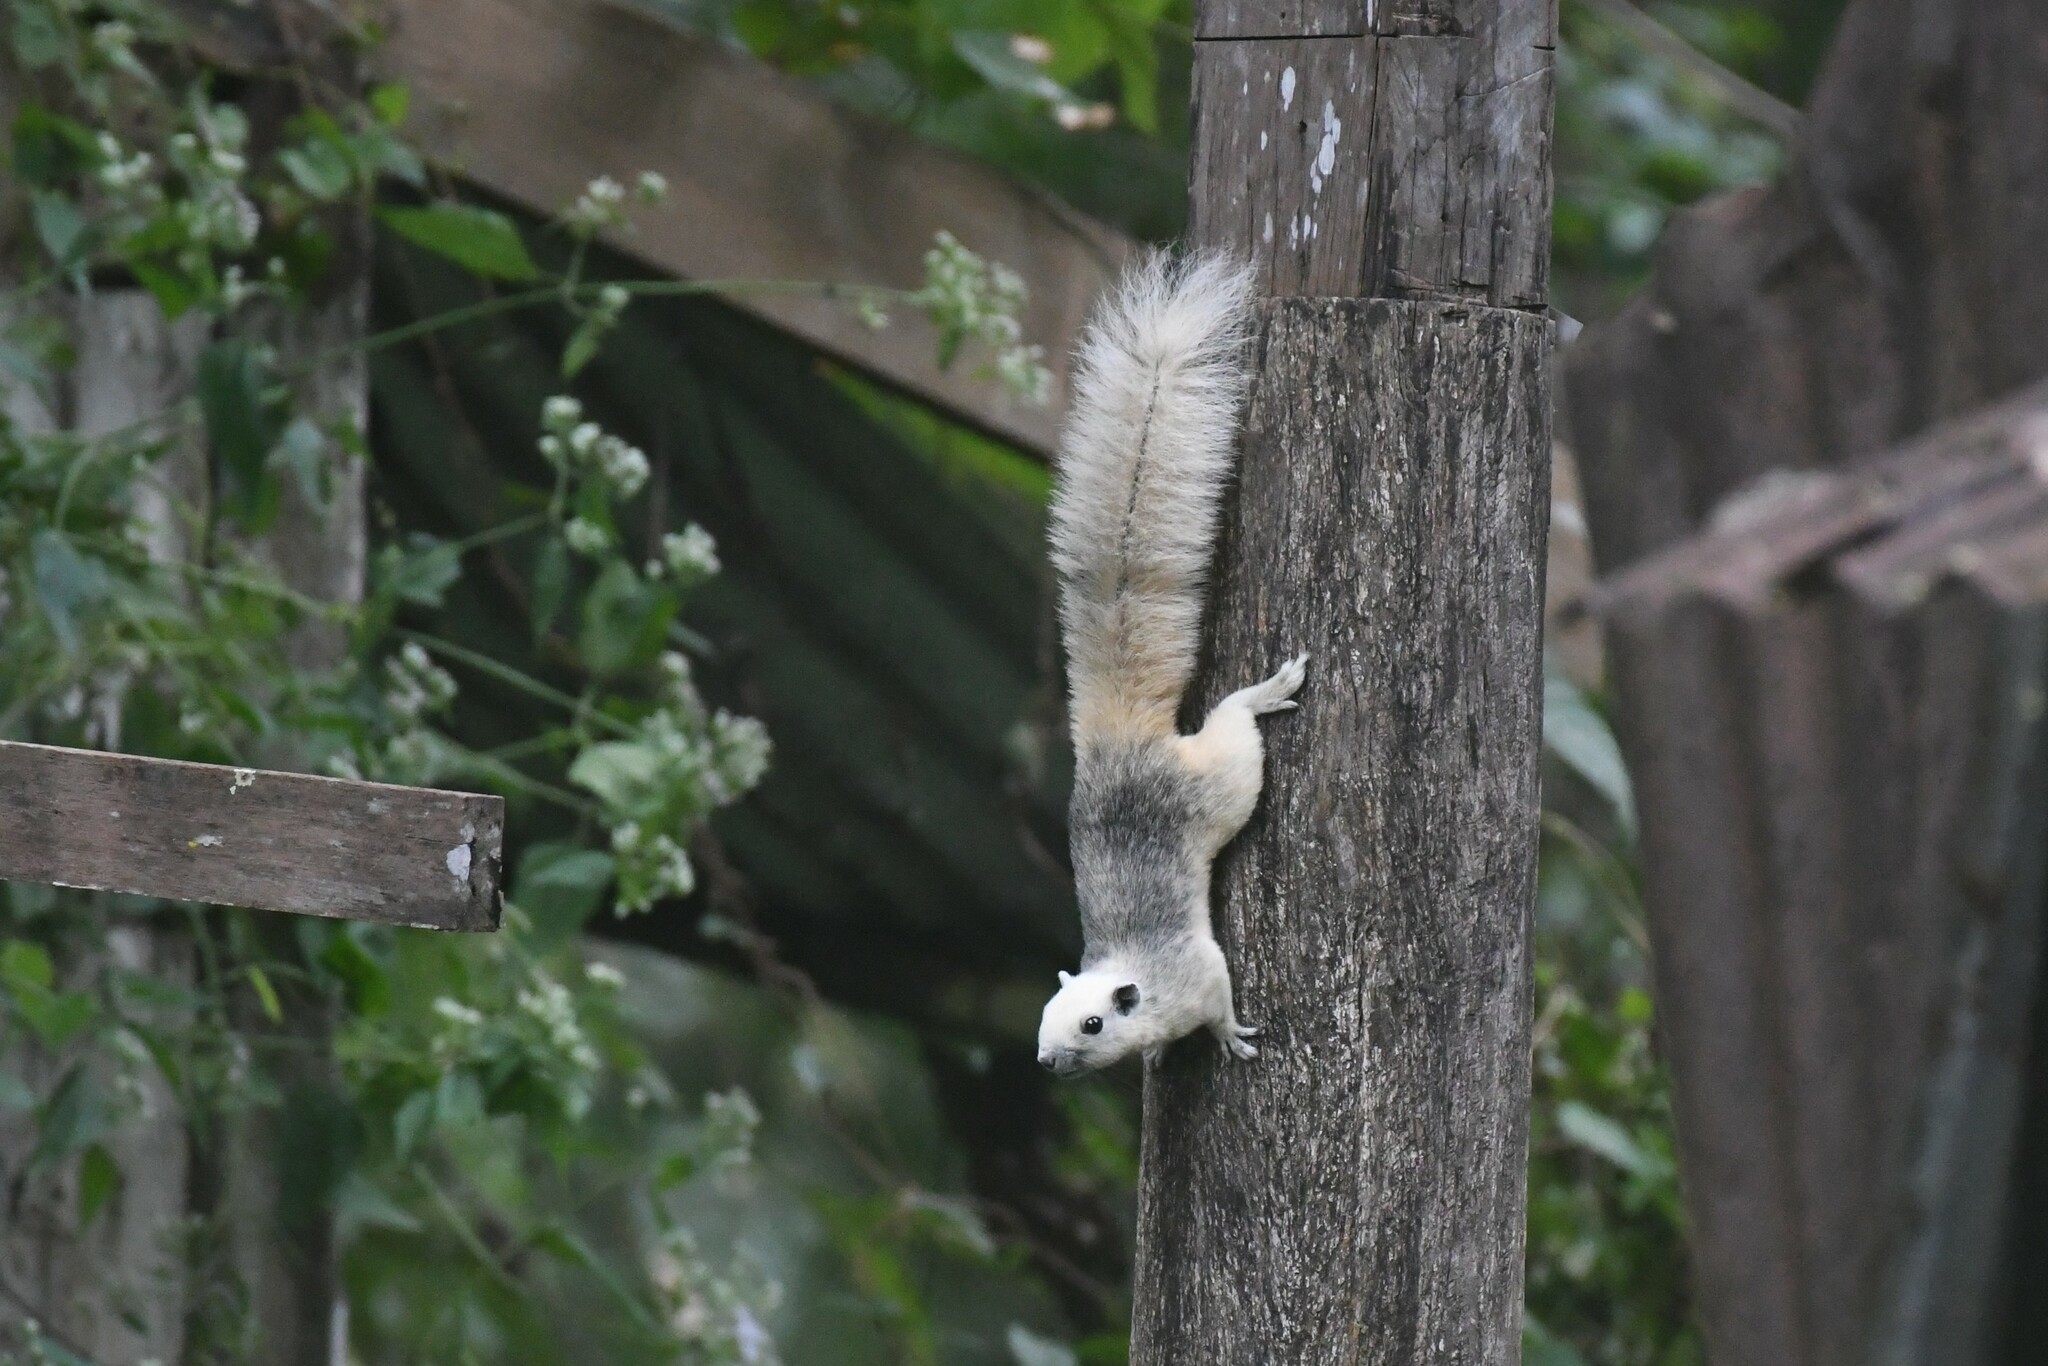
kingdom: Animalia
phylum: Chordata
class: Mammalia
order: Rodentia
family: Sciuridae
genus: Callosciurus
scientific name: Callosciurus finlaysonii
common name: Finlayson's squirrel
